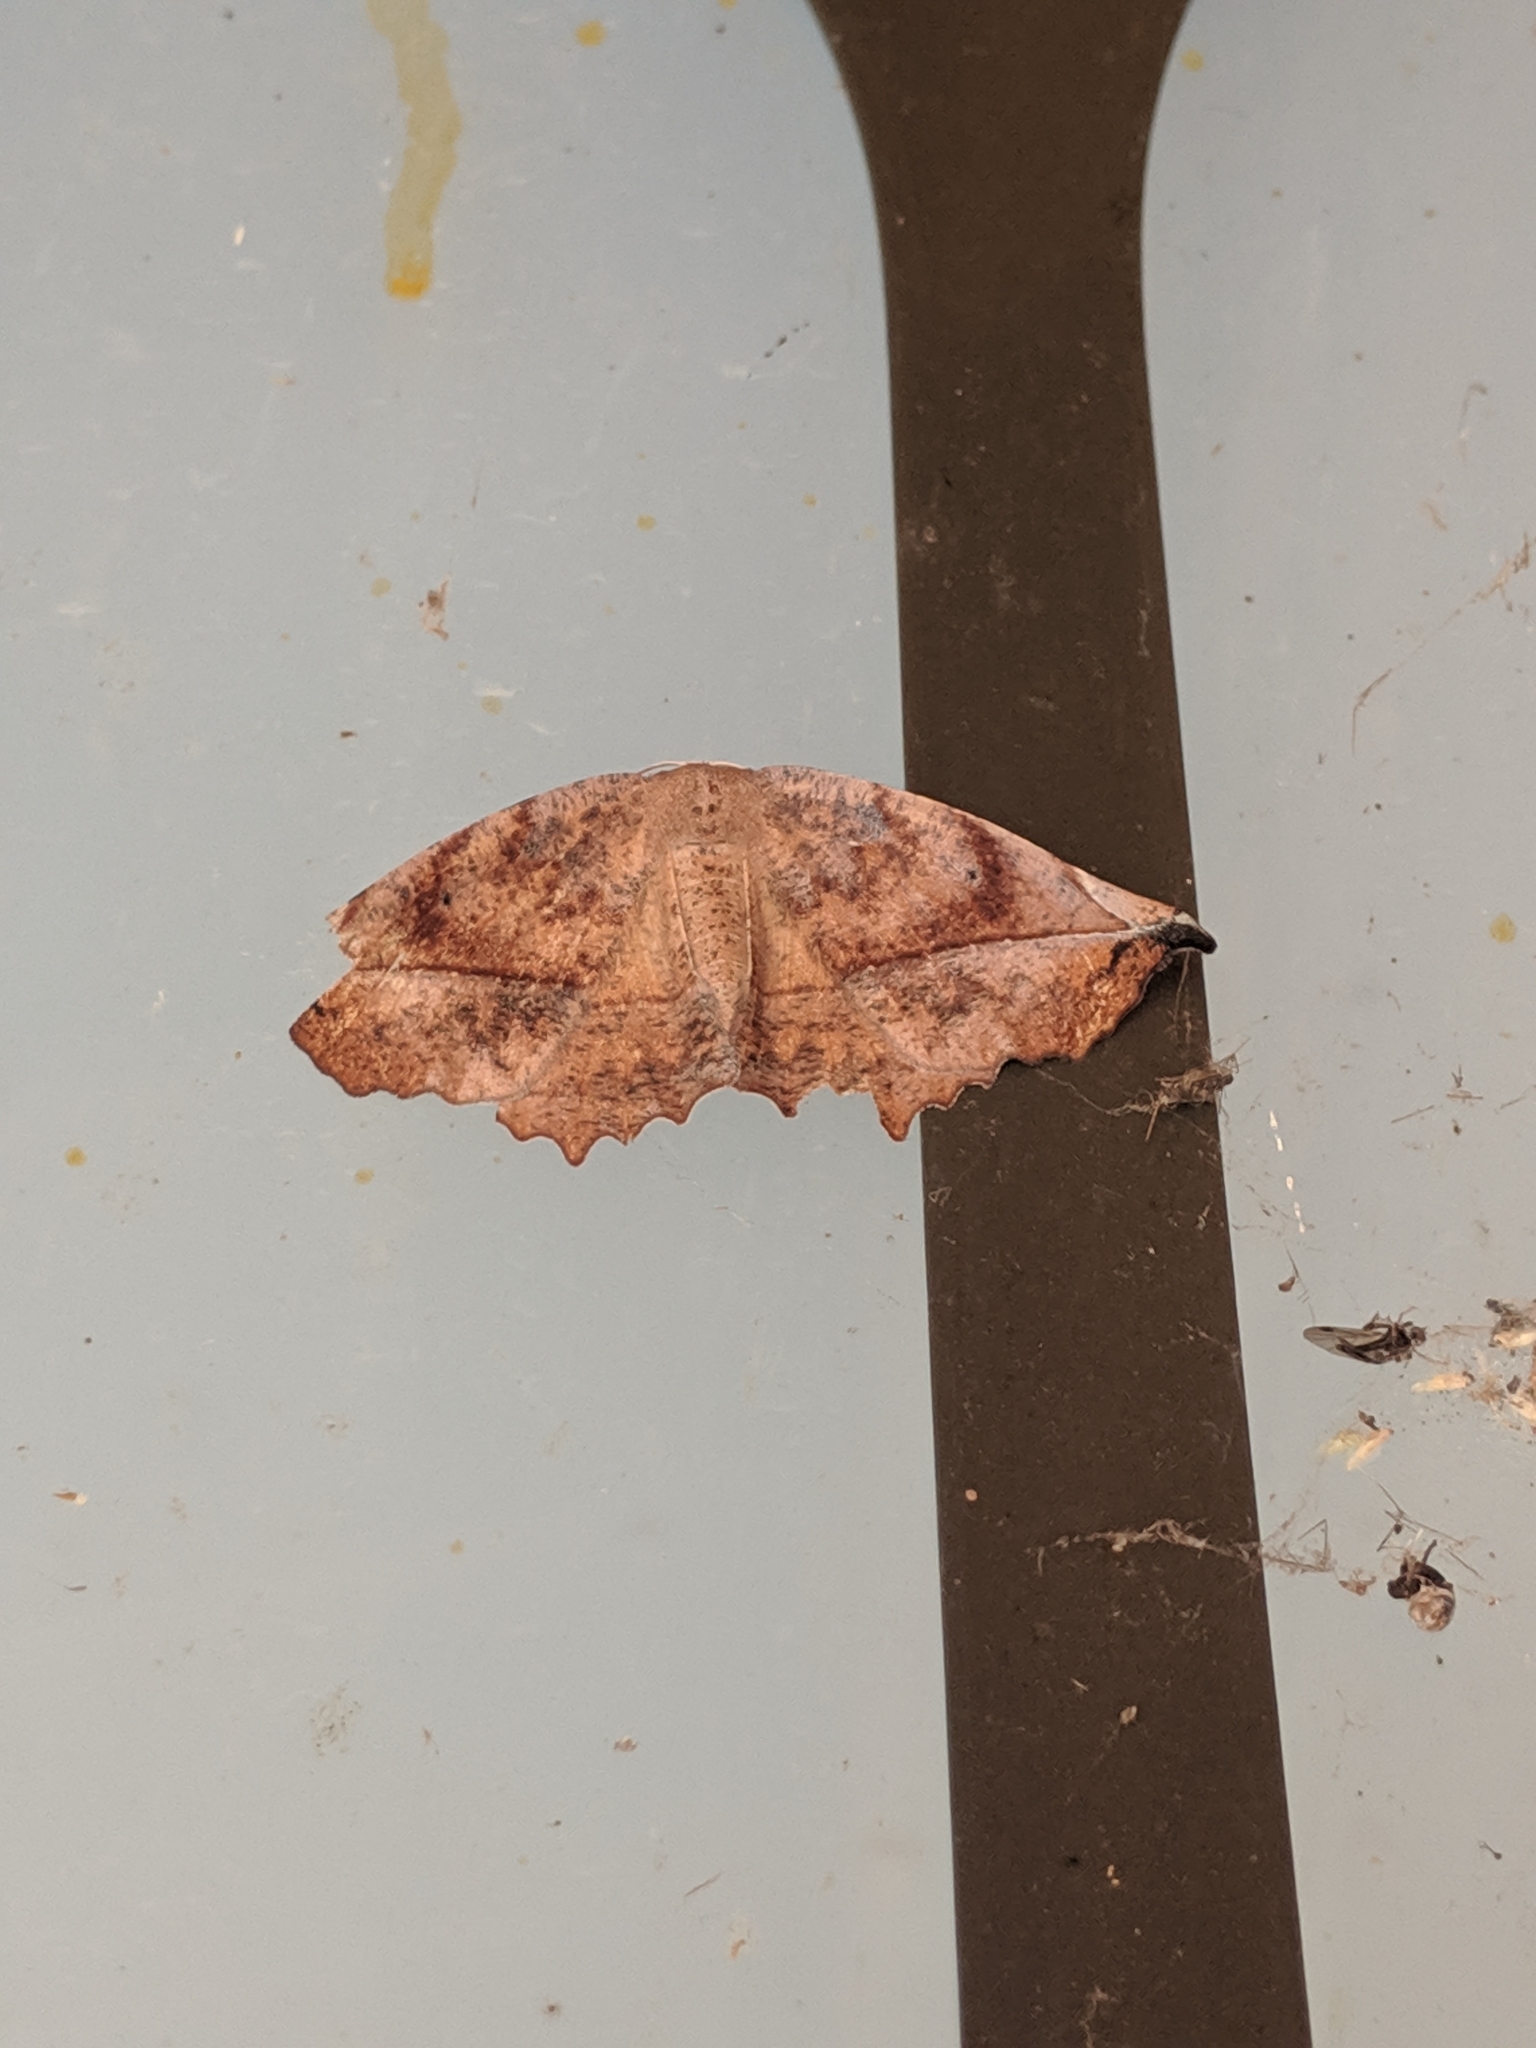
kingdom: Animalia
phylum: Arthropoda
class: Insecta
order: Lepidoptera
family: Geometridae
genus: Eutrapela
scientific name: Eutrapela clemataria
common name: Curved-toothed geometer
